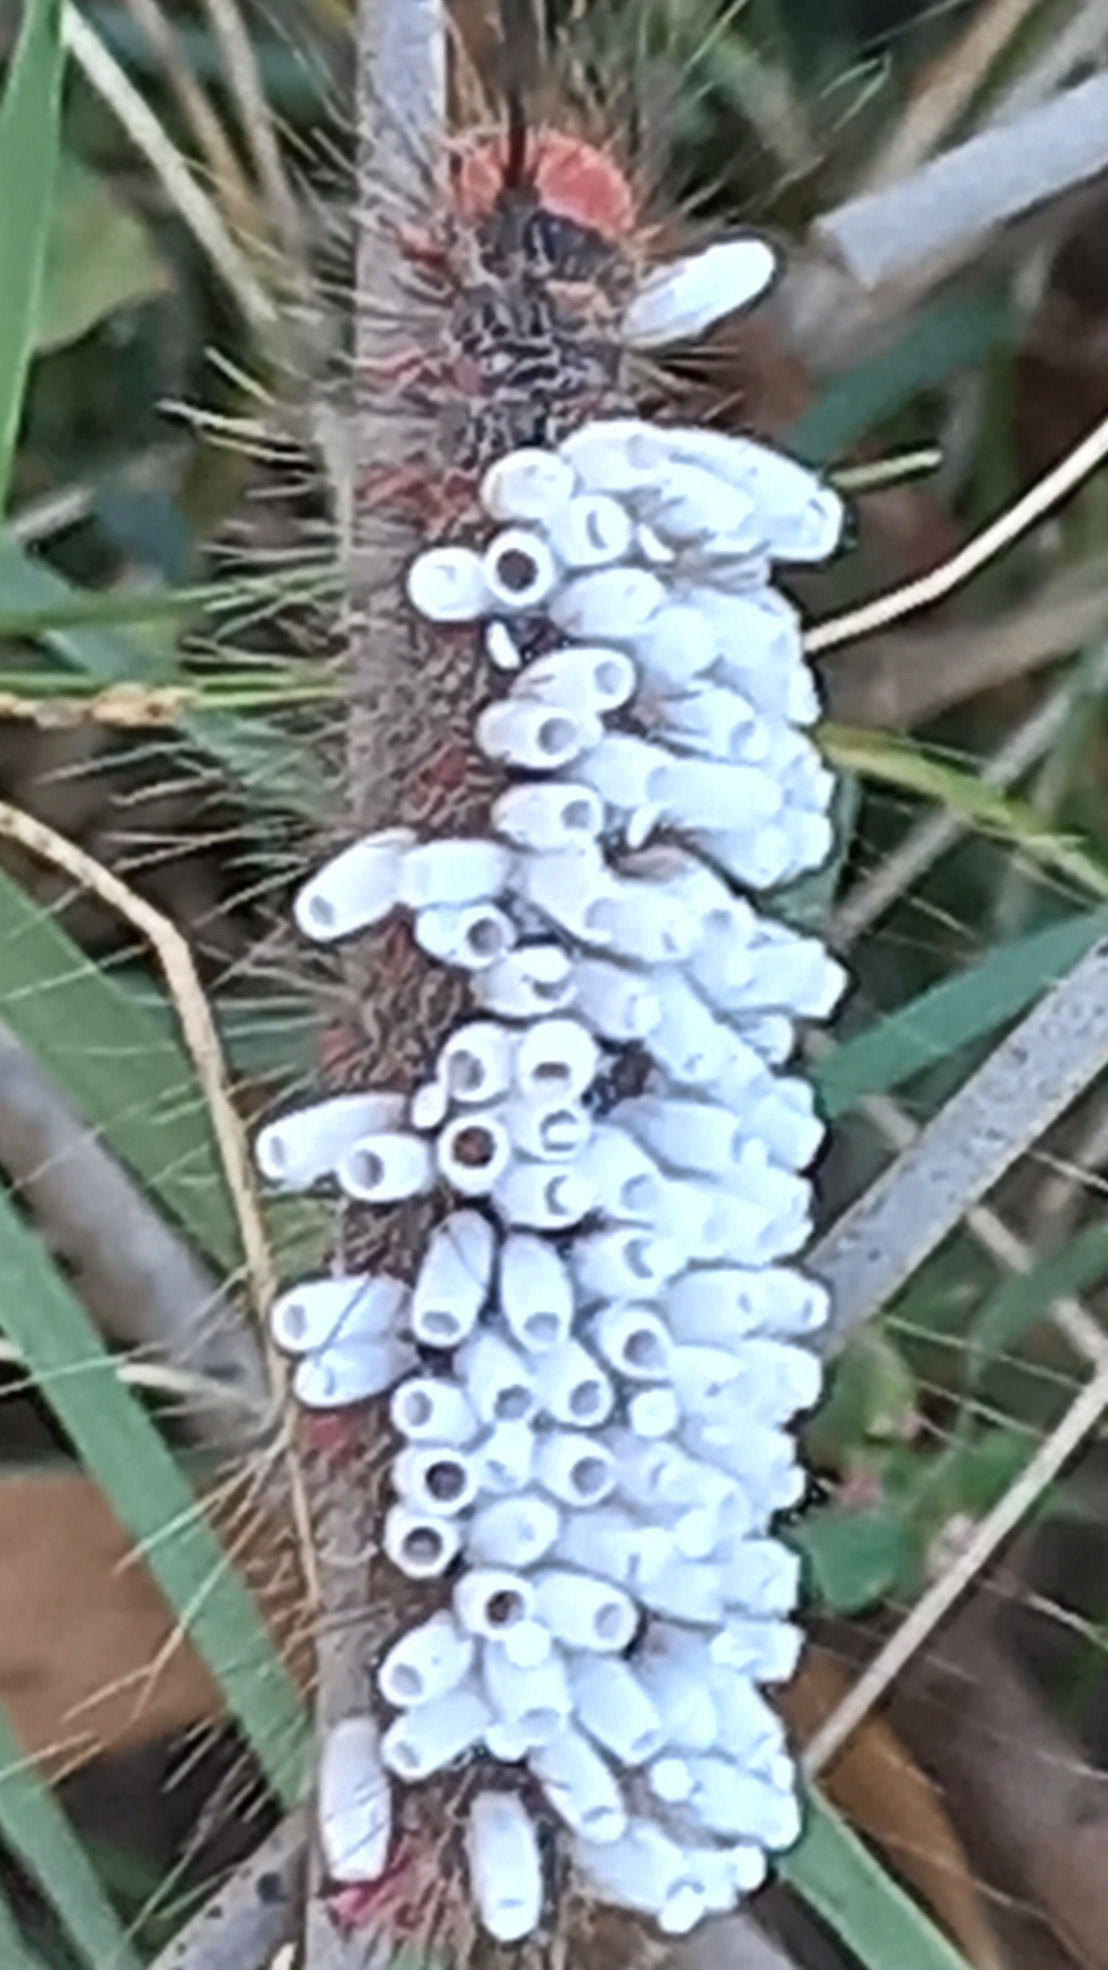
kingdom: Animalia
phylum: Arthropoda
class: Insecta
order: Hymenoptera
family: Braconidae
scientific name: Braconidae
